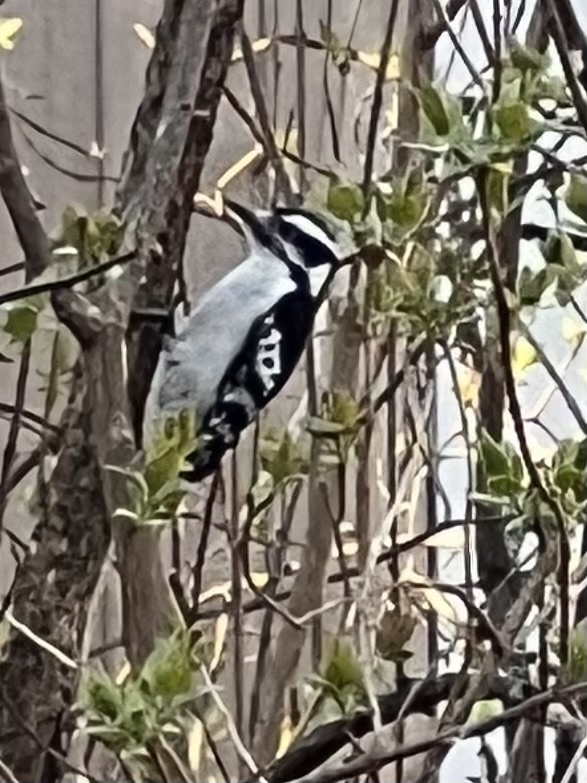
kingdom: Animalia
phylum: Chordata
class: Aves
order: Piciformes
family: Picidae
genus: Dryobates
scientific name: Dryobates pubescens
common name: Downy woodpecker
